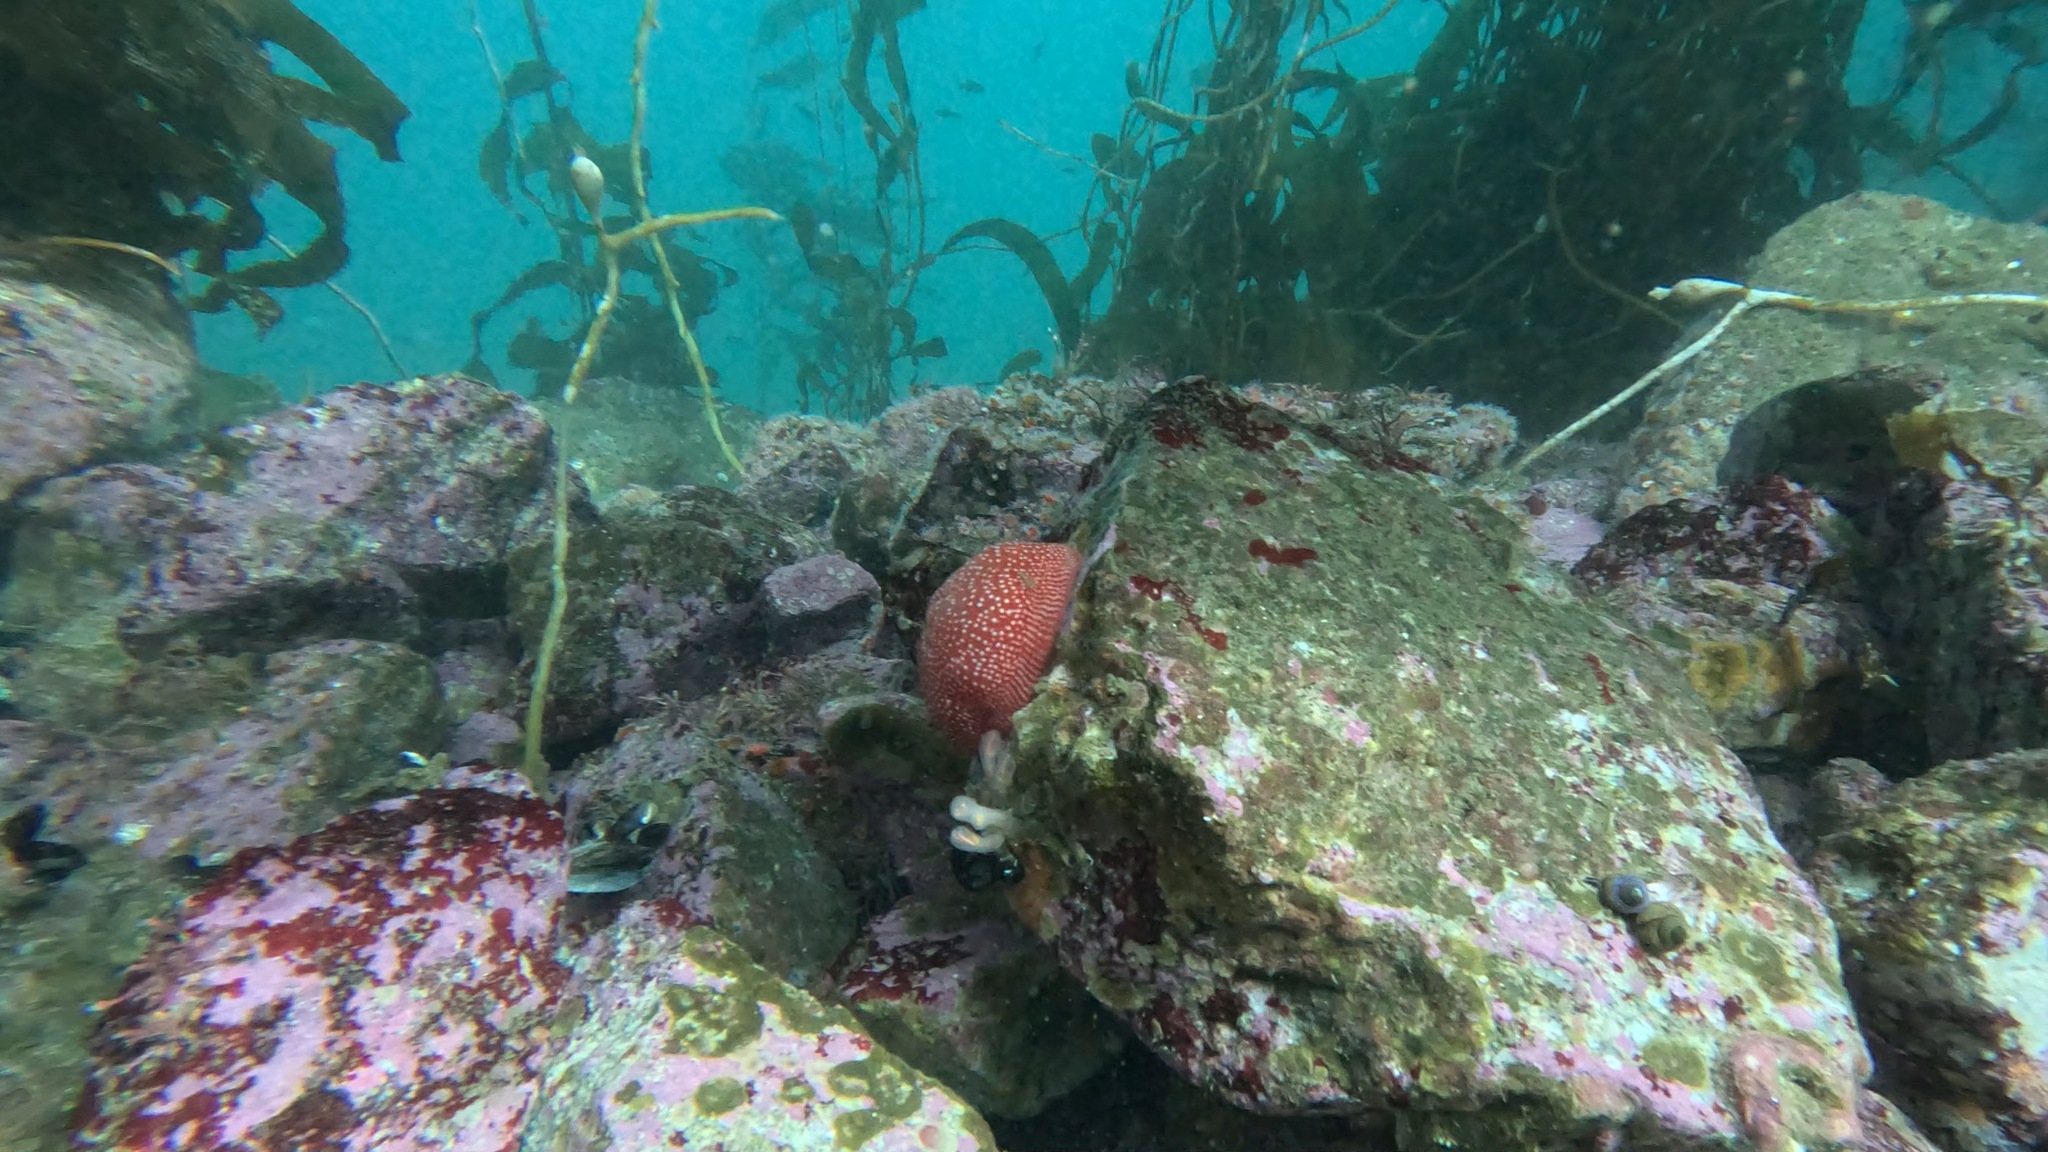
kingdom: Animalia
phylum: Cnidaria
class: Anthozoa
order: Actiniaria
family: Actiniidae
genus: Cribrinopsis
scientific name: Cribrinopsis albopunctata
